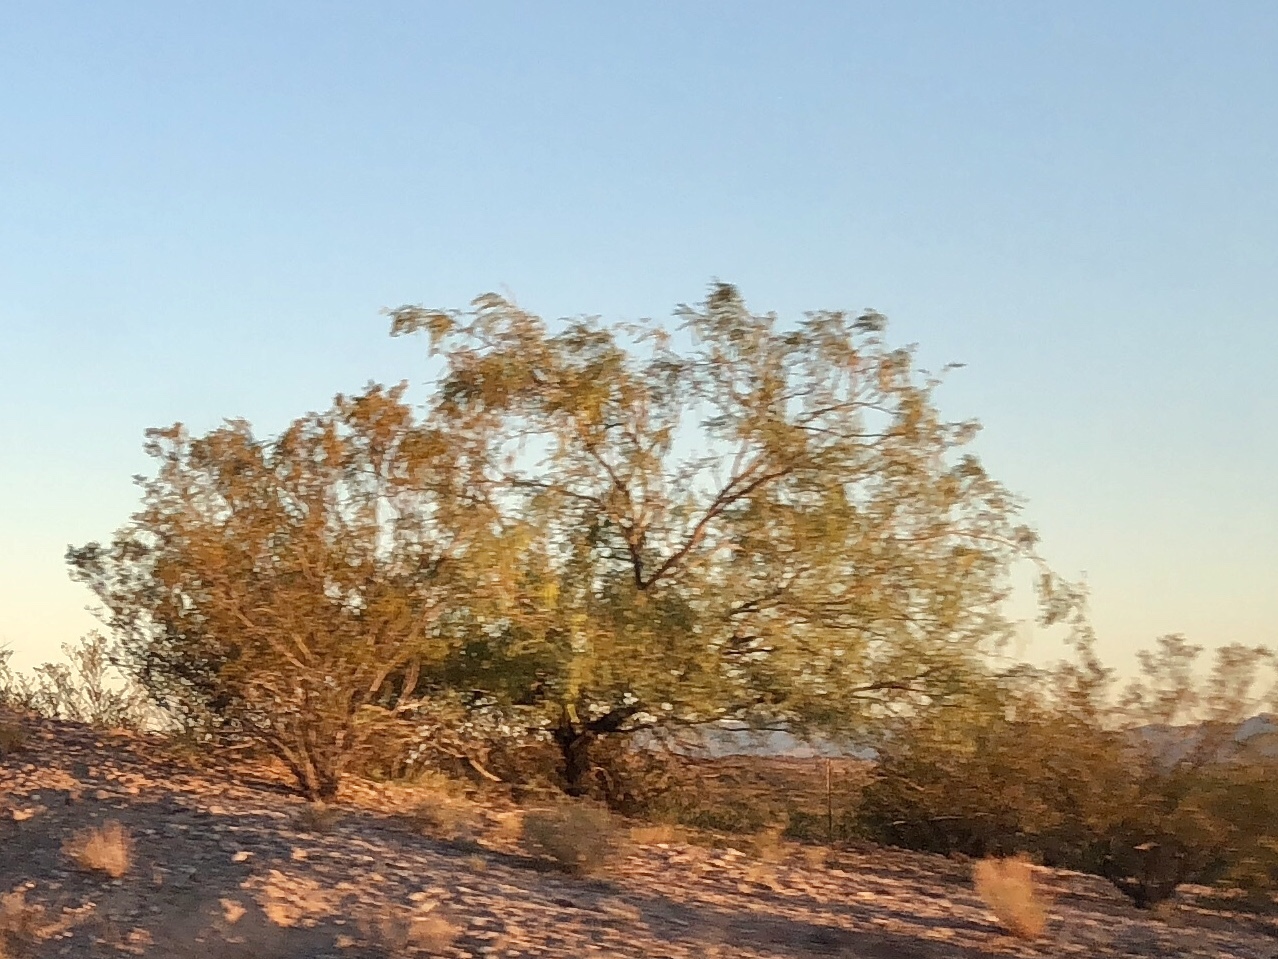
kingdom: Plantae
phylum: Tracheophyta
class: Magnoliopsida
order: Zygophyllales
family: Zygophyllaceae
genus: Larrea
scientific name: Larrea tridentata
